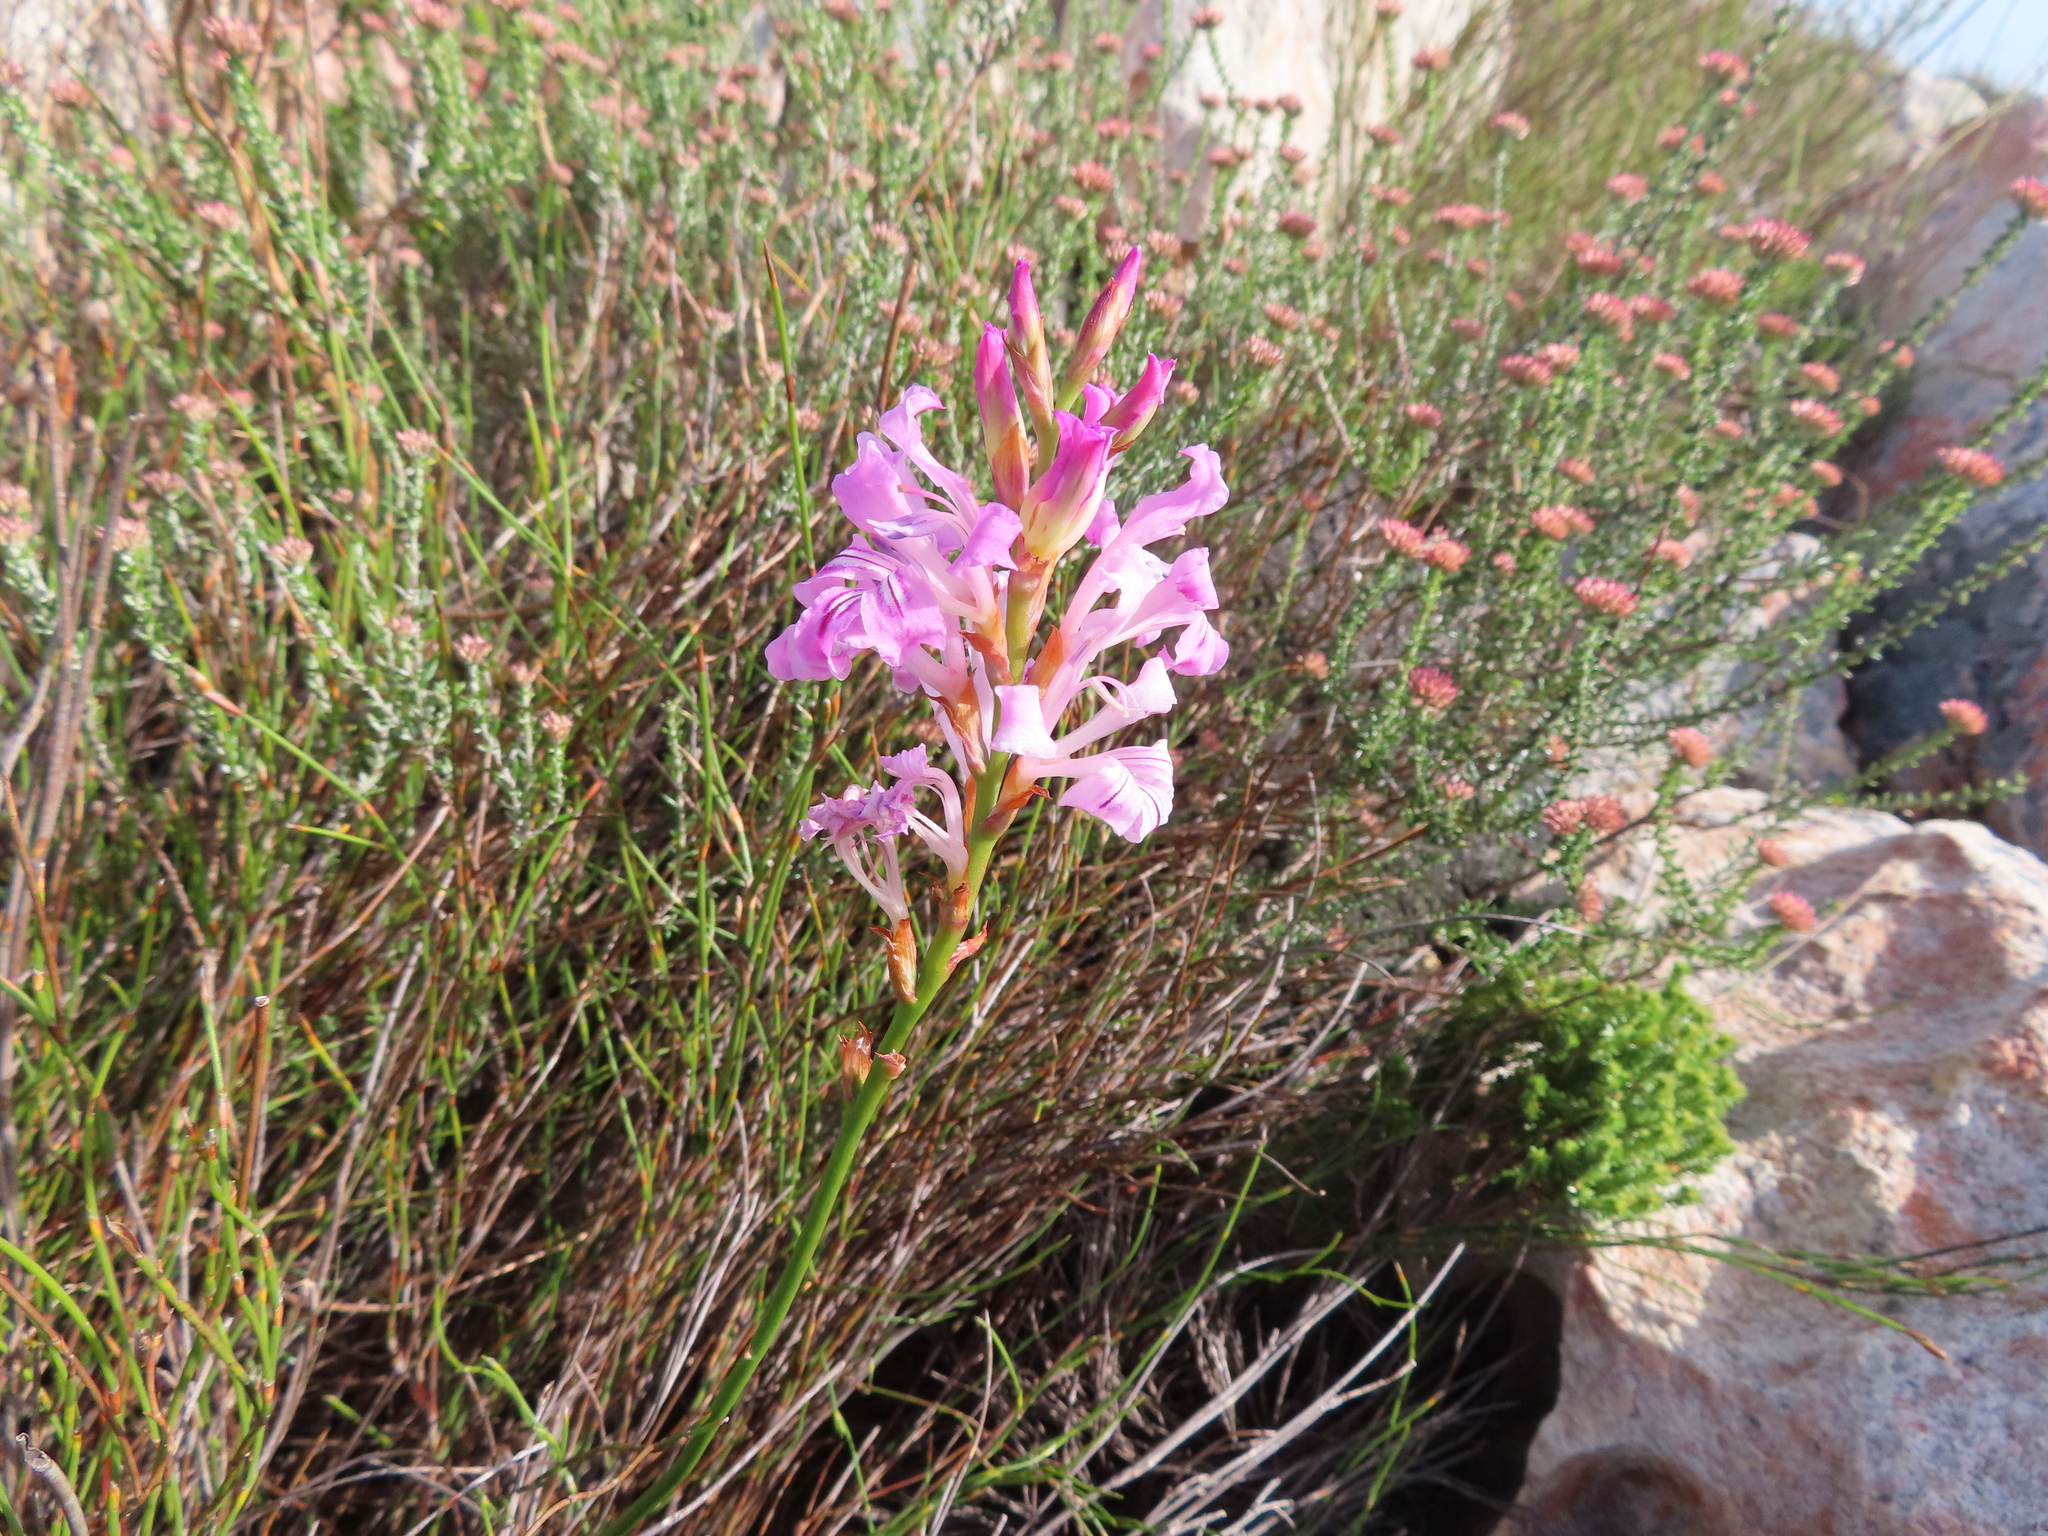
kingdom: Plantae
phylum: Tracheophyta
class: Liliopsida
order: Asparagales
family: Iridaceae
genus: Tritoniopsis
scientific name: Tritoniopsis lata
